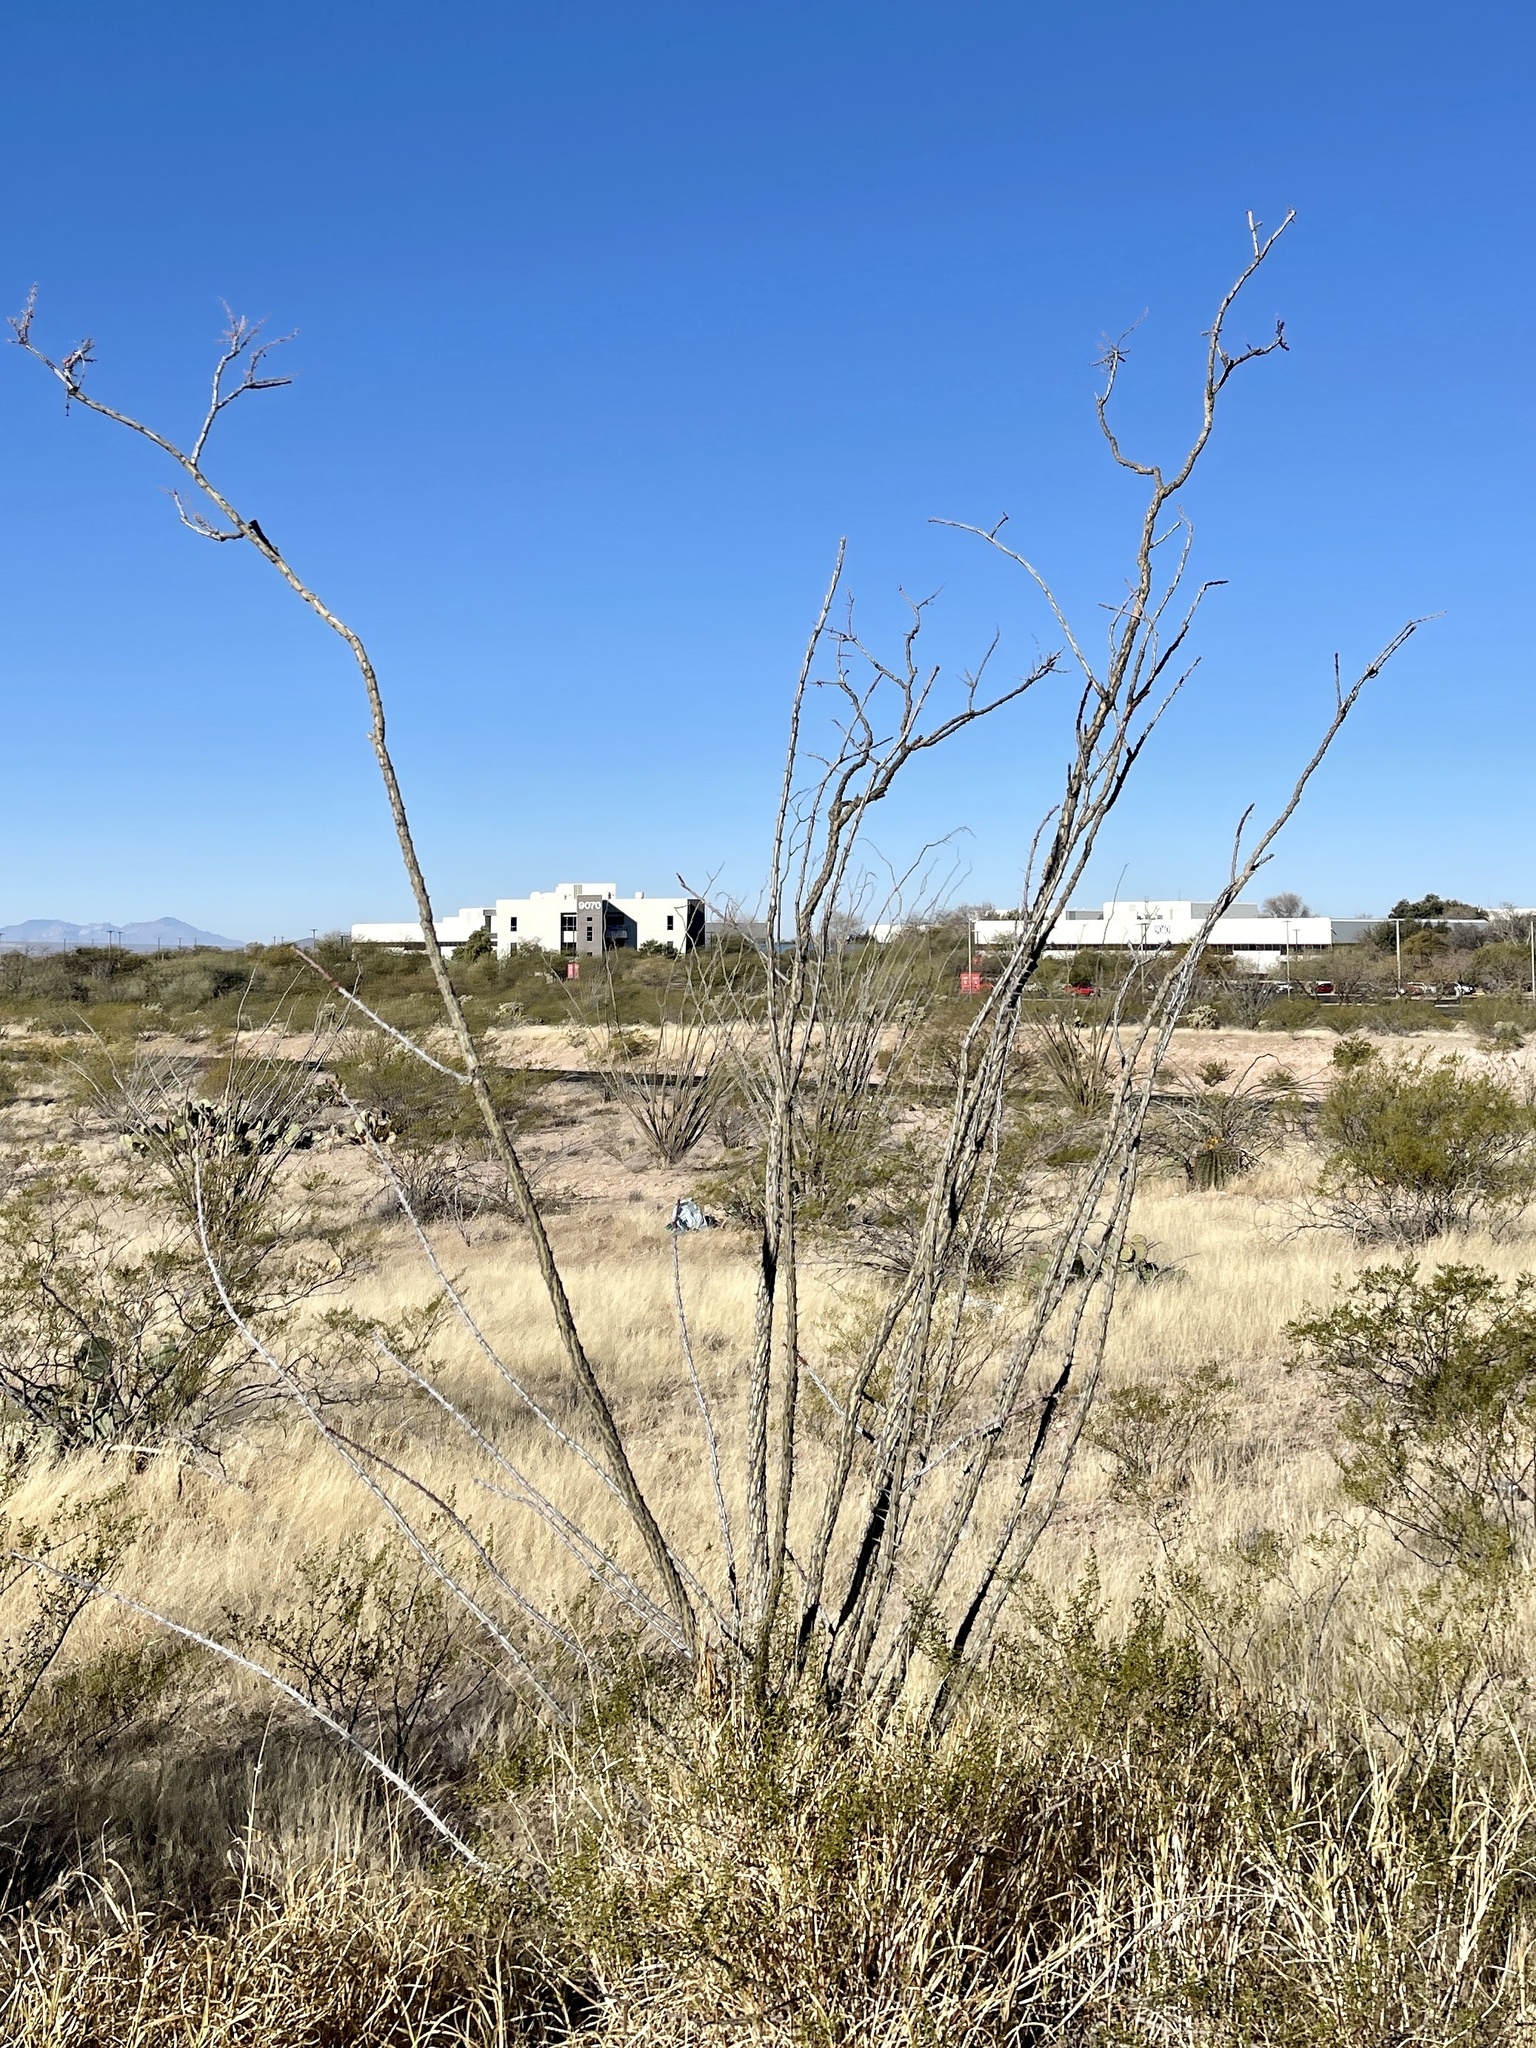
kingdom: Plantae
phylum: Tracheophyta
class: Magnoliopsida
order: Ericales
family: Fouquieriaceae
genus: Fouquieria
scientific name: Fouquieria splendens
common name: Vine-cactus
